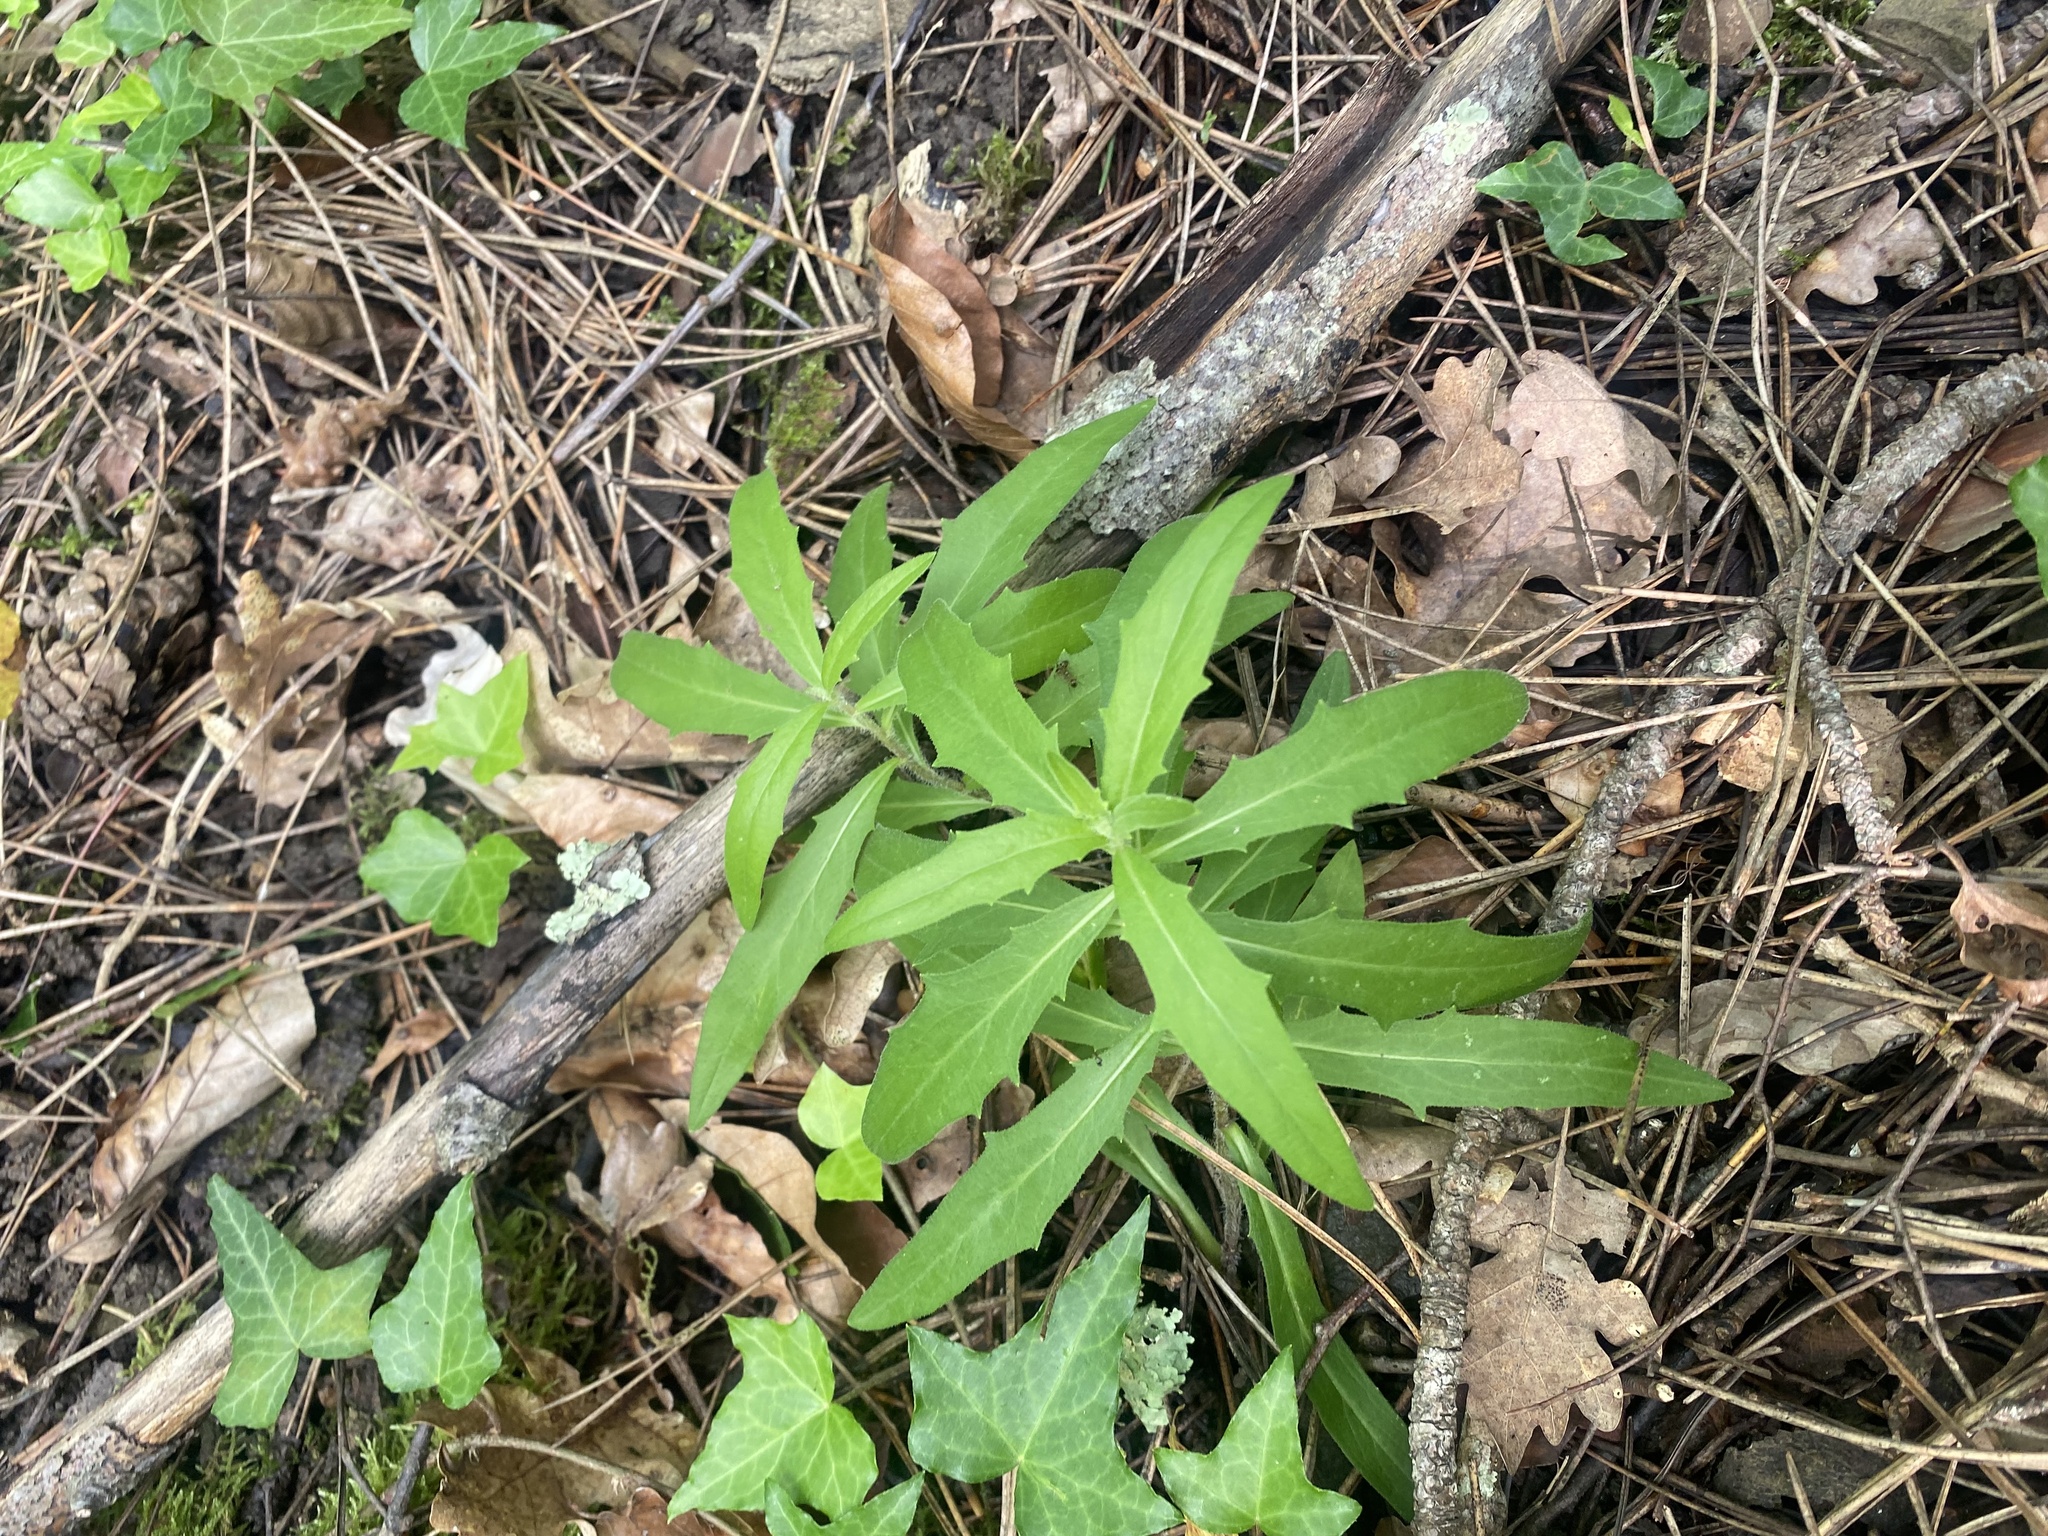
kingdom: Plantae
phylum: Tracheophyta
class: Magnoliopsida
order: Asterales
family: Asteraceae
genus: Hieracium
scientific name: Hieracium umbellatum
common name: Northern hawkweed
